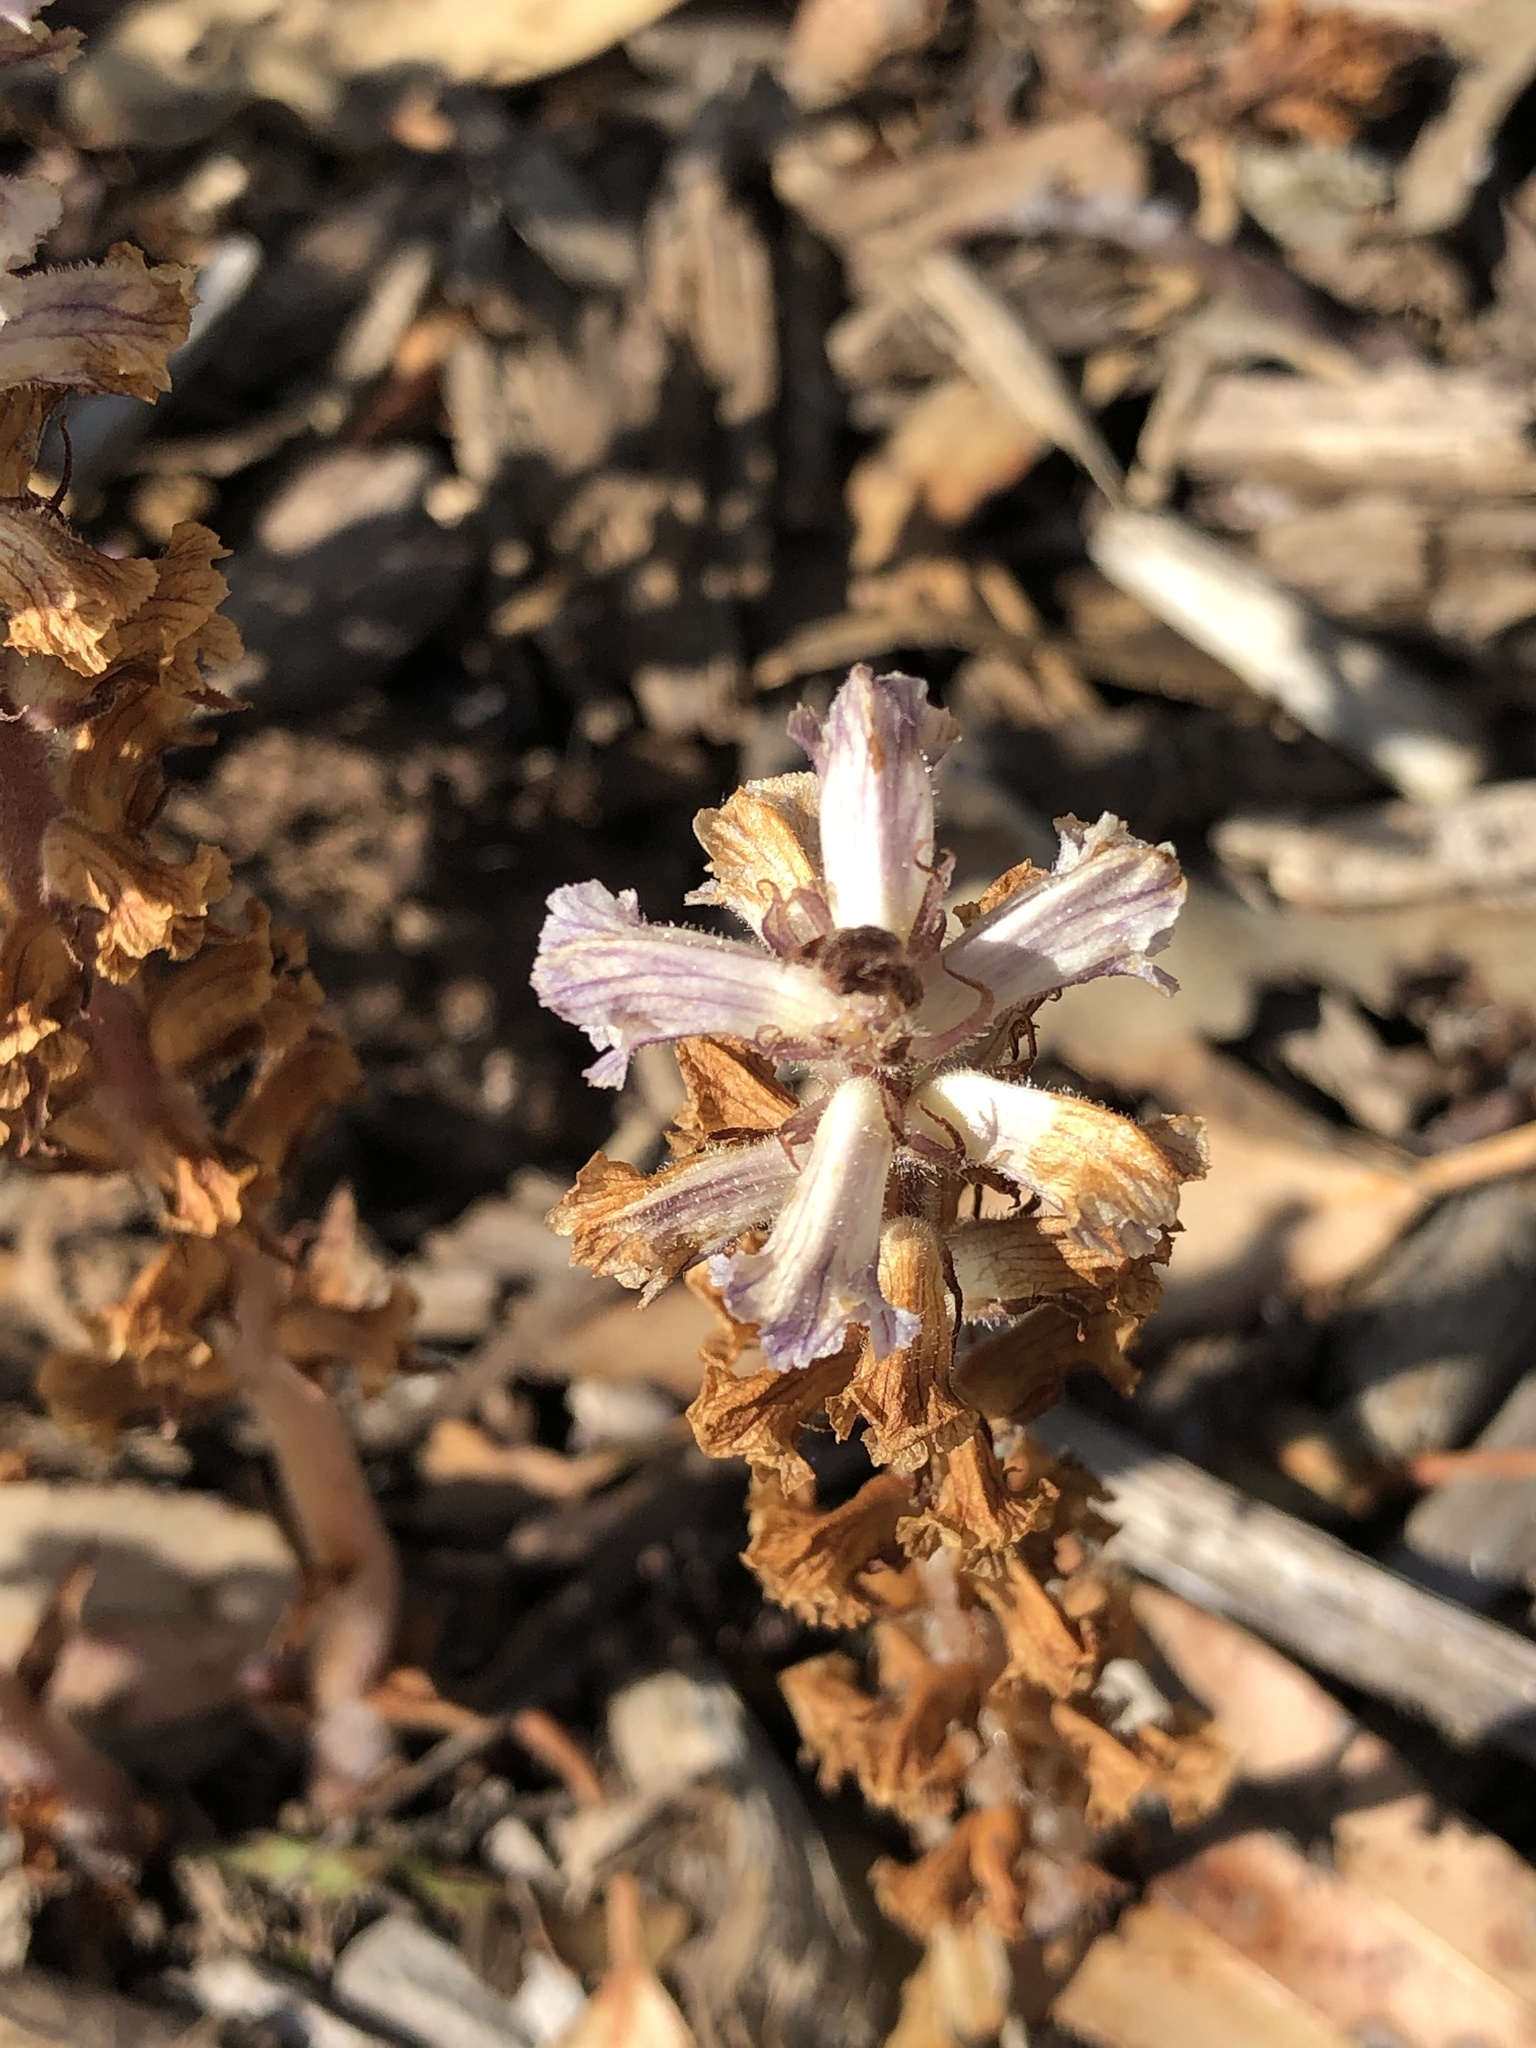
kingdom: Plantae
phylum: Tracheophyta
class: Magnoliopsida
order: Lamiales
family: Orobanchaceae
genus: Orobanche
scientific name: Orobanche minor
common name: Common broomrape
